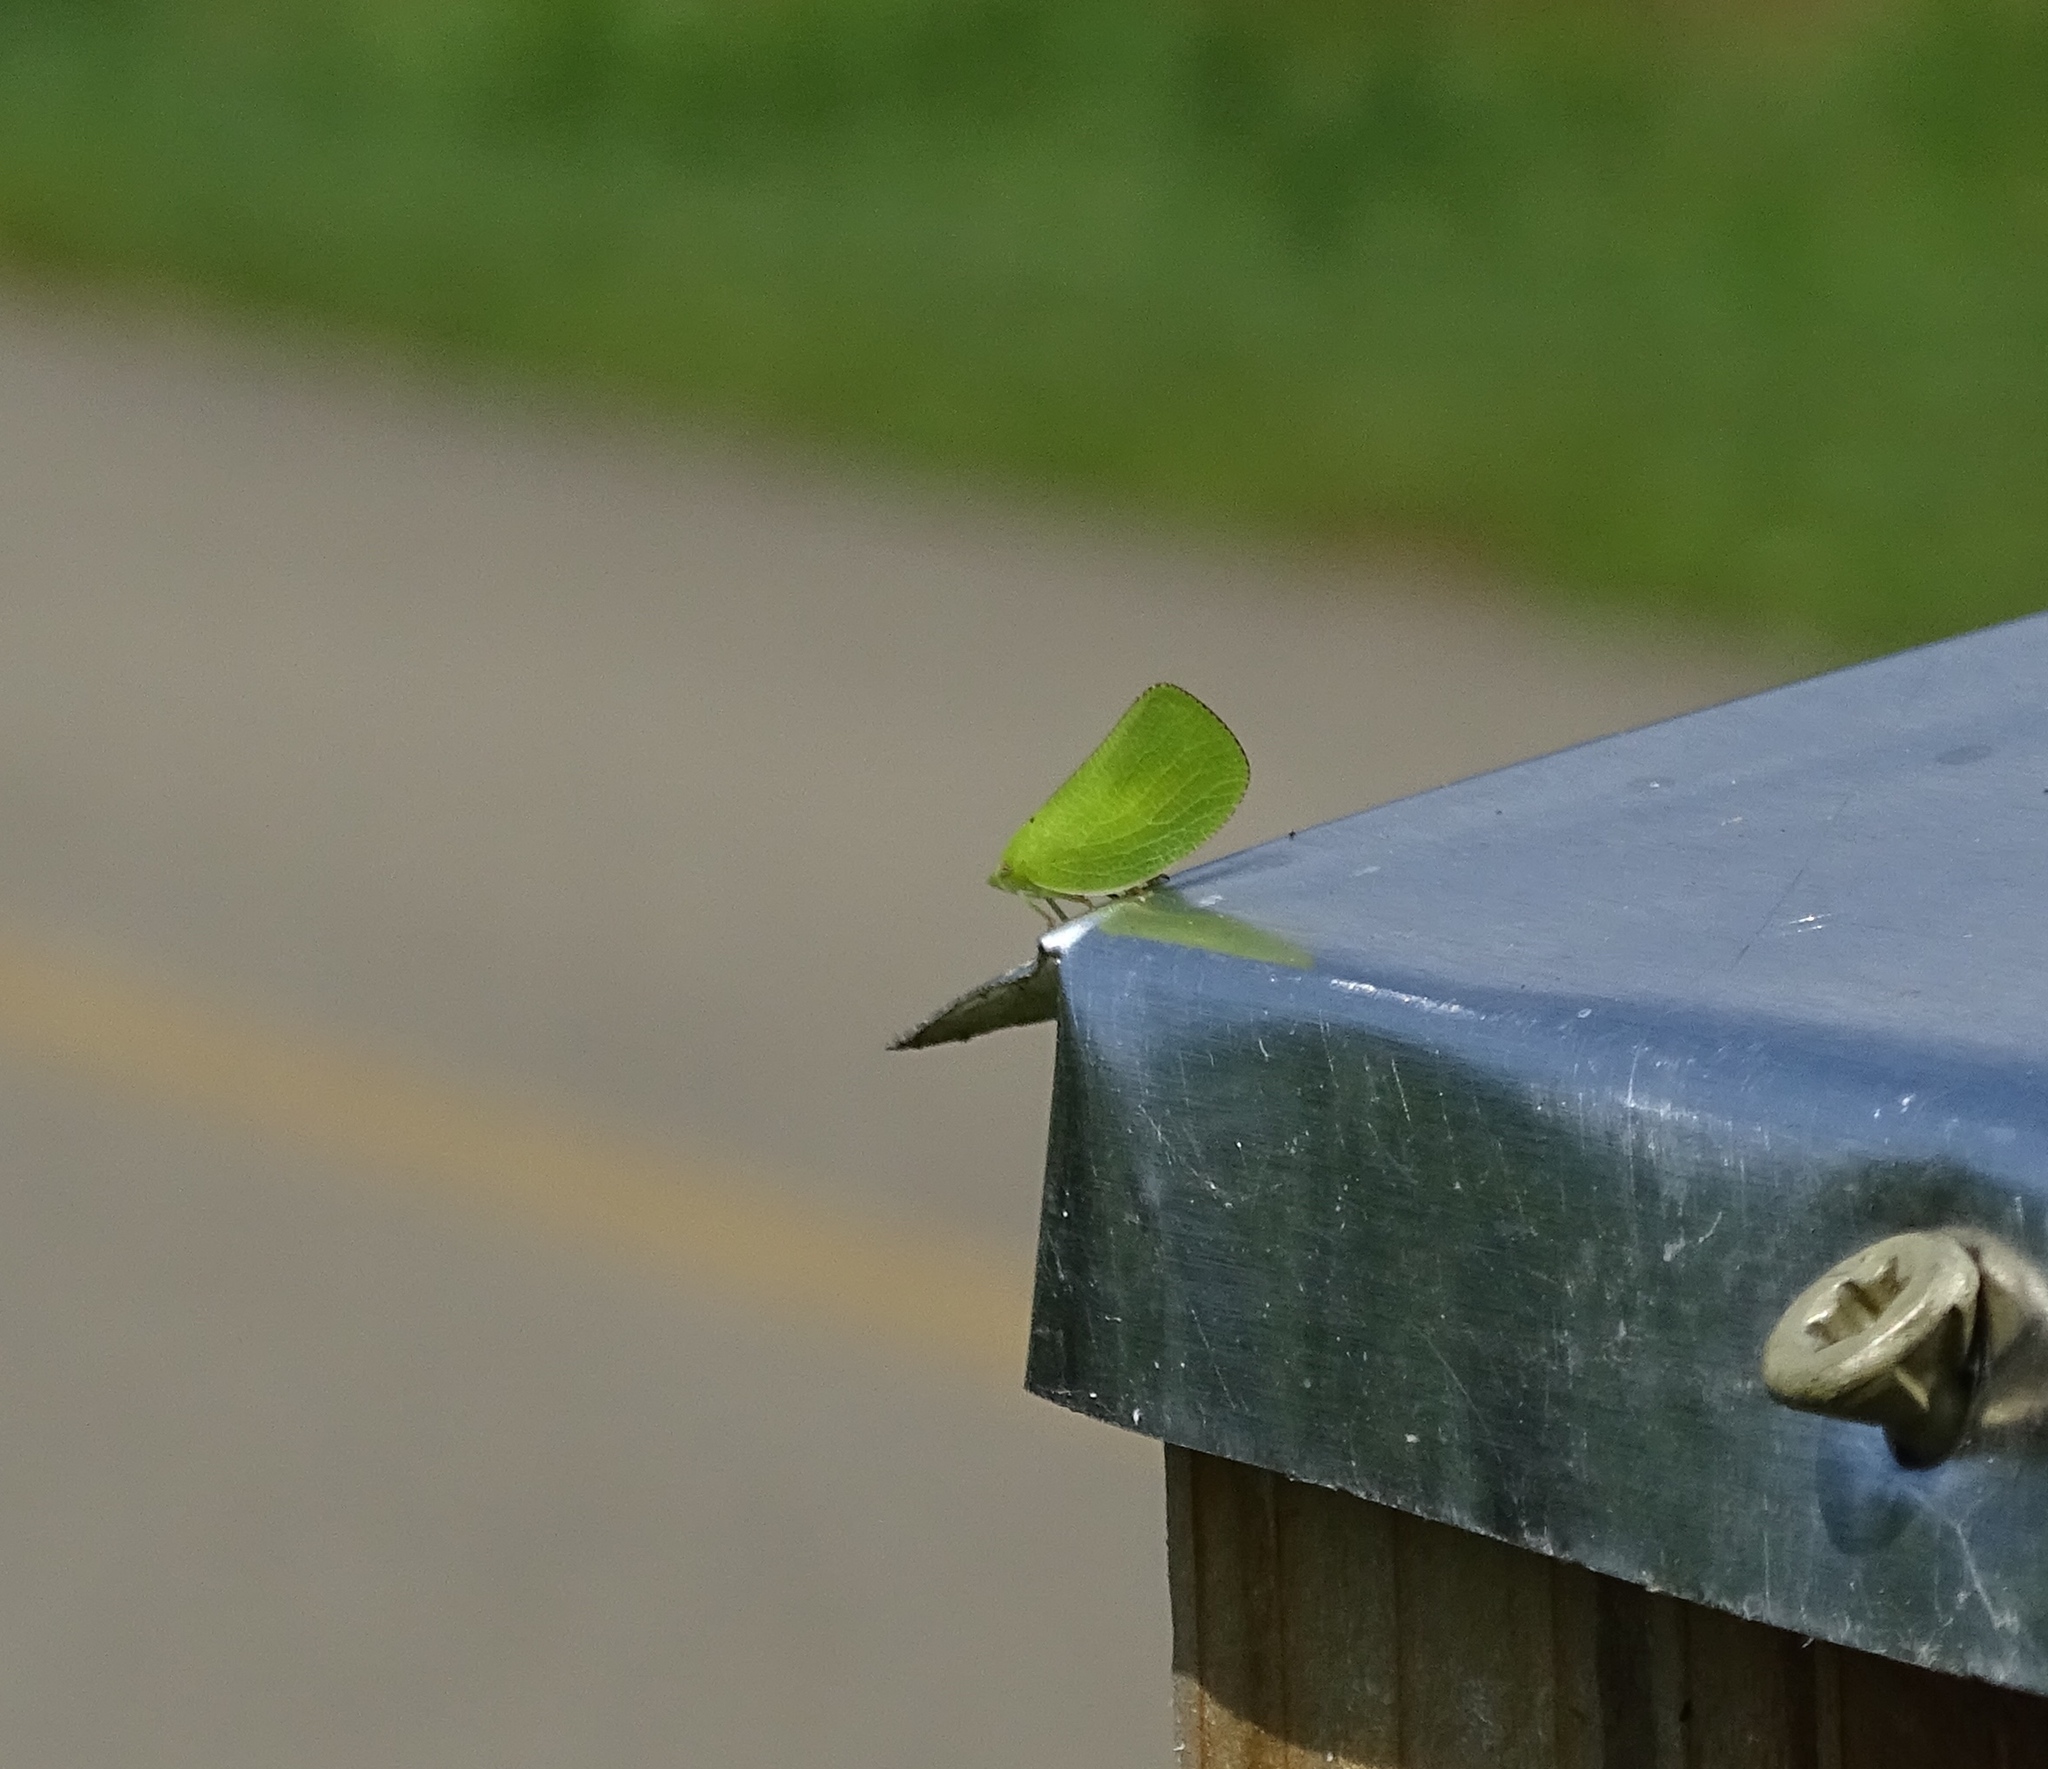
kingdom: Animalia
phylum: Arthropoda
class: Insecta
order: Hemiptera
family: Acanaloniidae
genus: Acanalonia
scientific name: Acanalonia conica
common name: Green cone-headed planthopper
